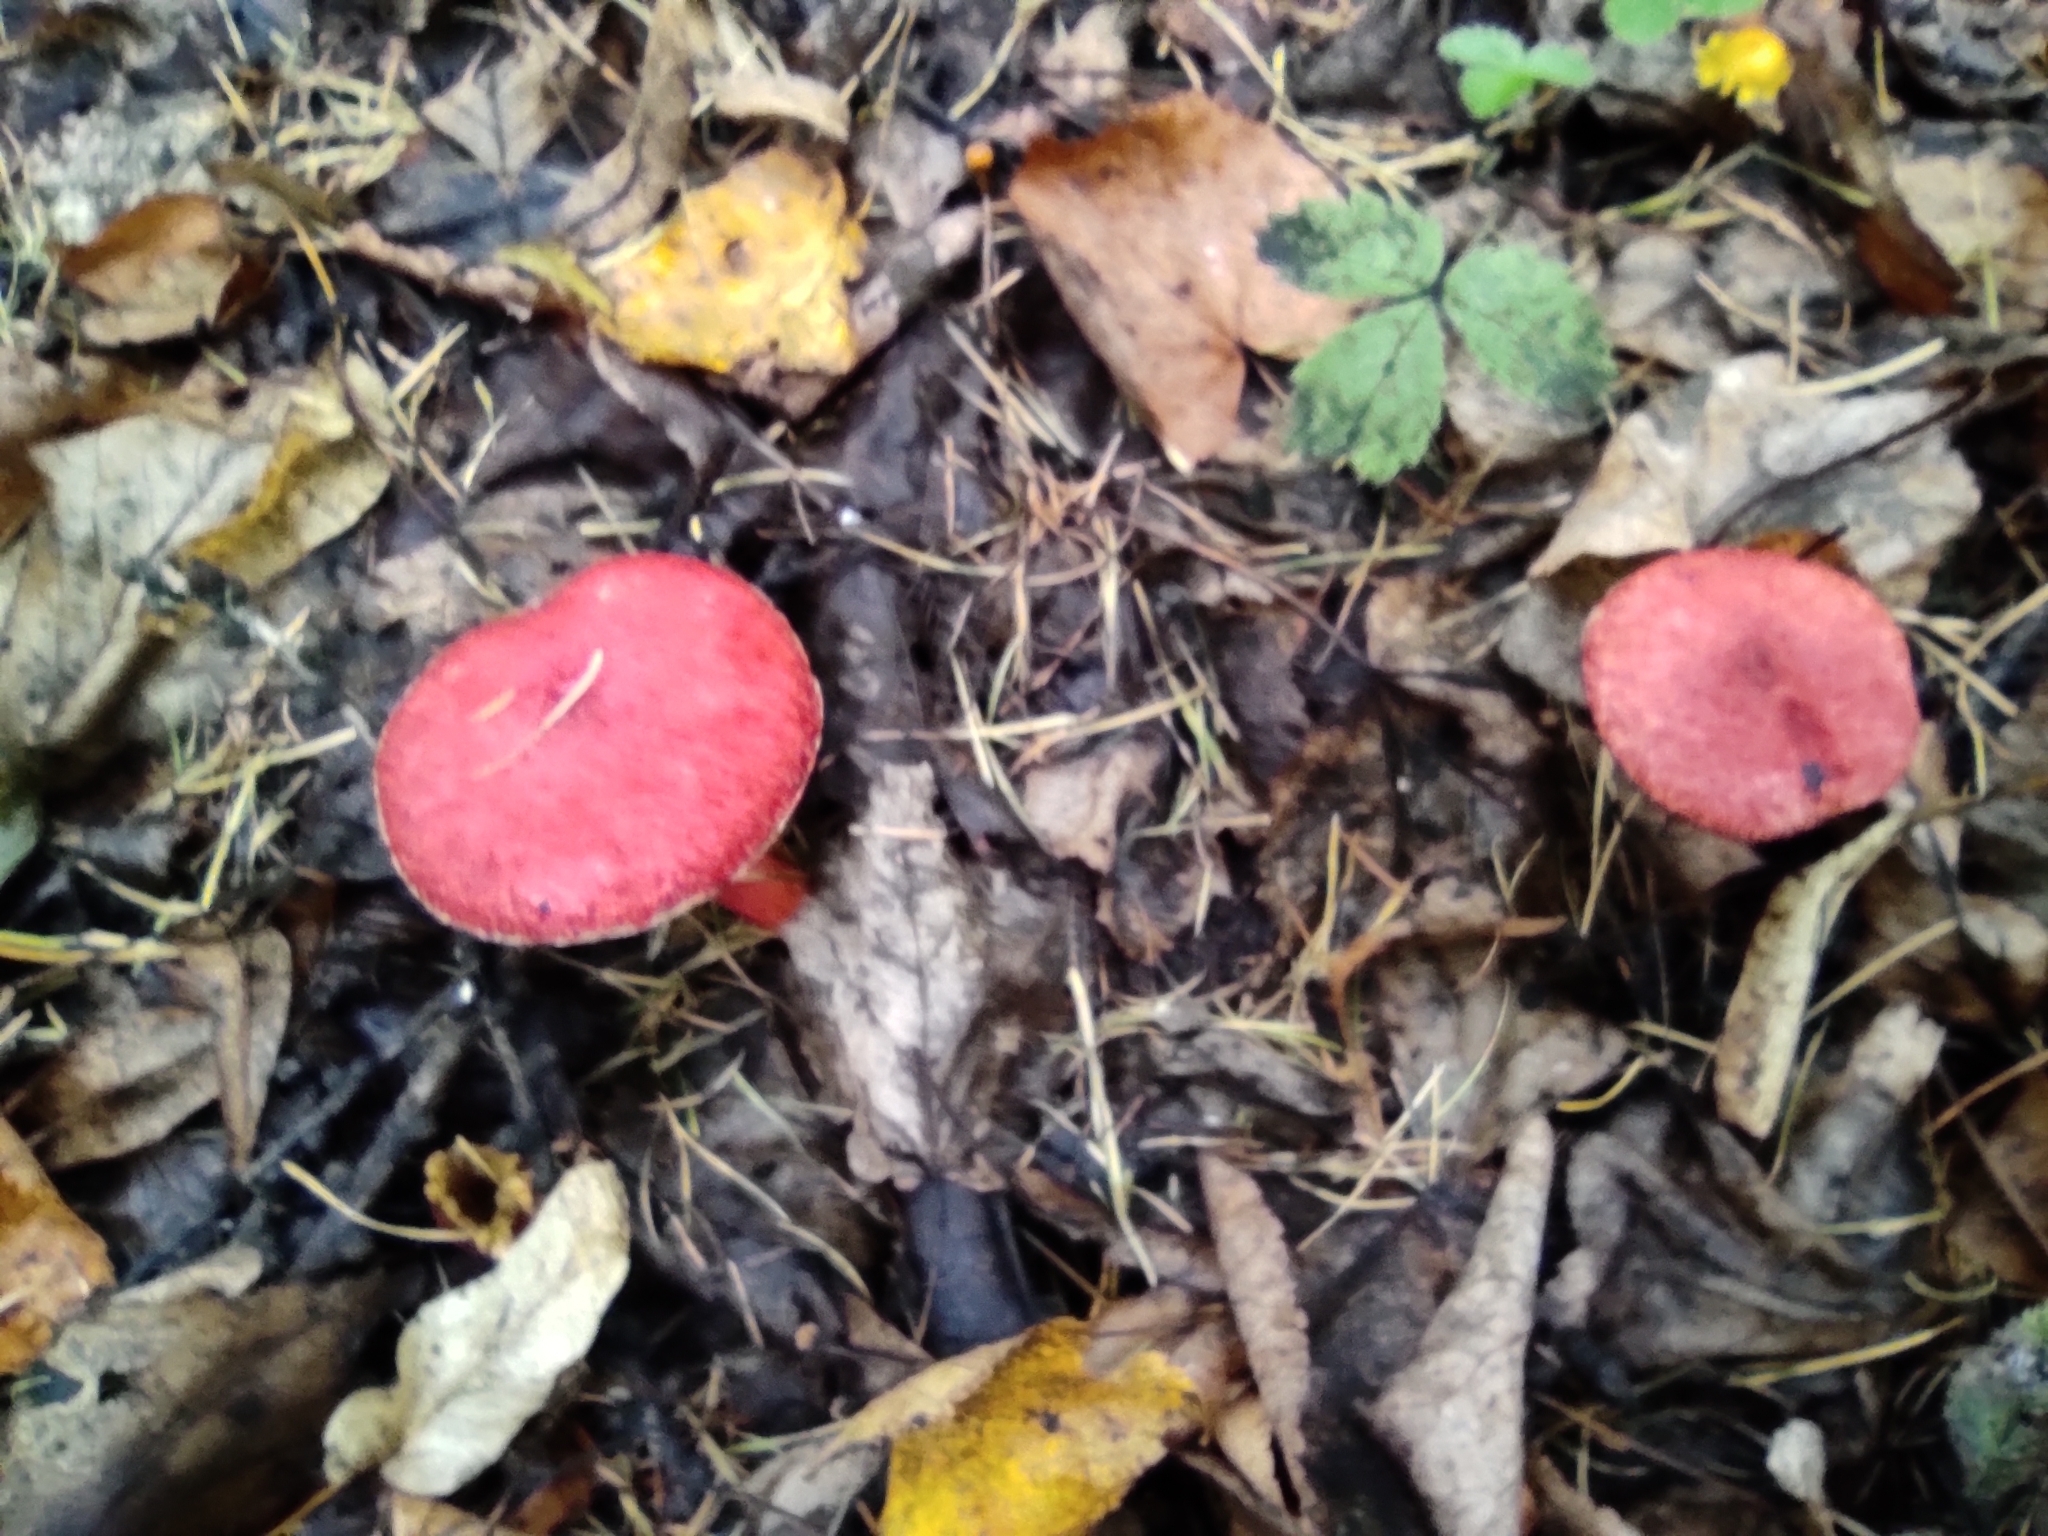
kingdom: Fungi
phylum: Basidiomycota
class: Agaricomycetes
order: Boletales
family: Suillaceae
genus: Boletinus
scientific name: Boletinus asiaticus
